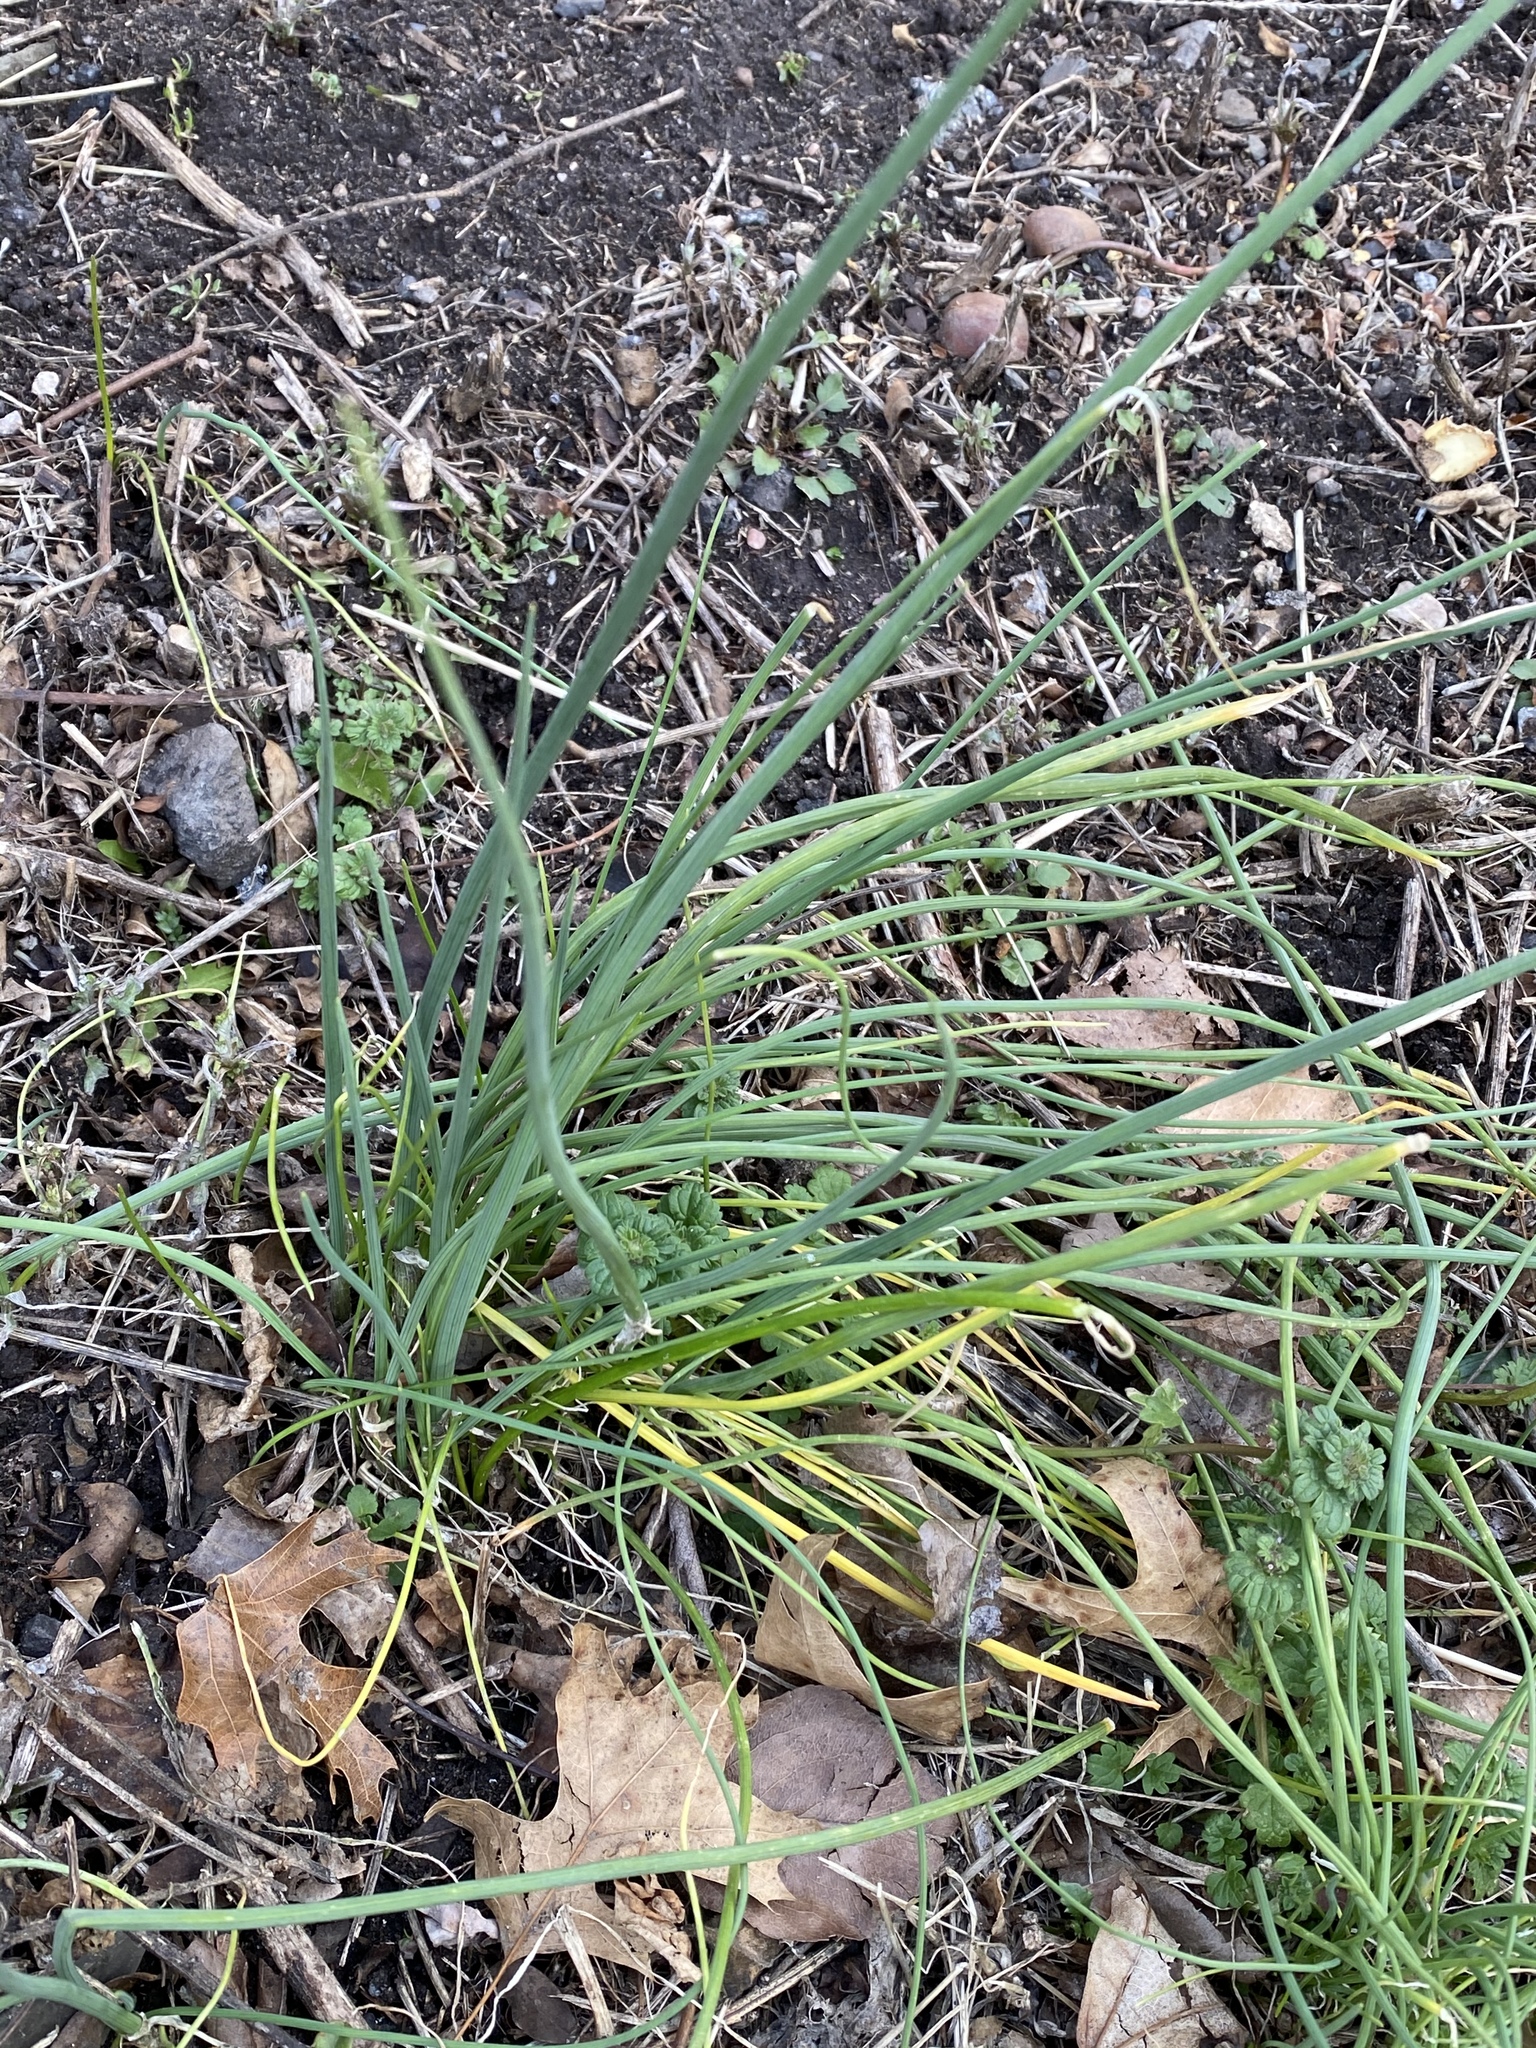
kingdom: Plantae
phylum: Tracheophyta
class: Liliopsida
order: Asparagales
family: Amaryllidaceae
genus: Allium
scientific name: Allium vineale
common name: Crow garlic
